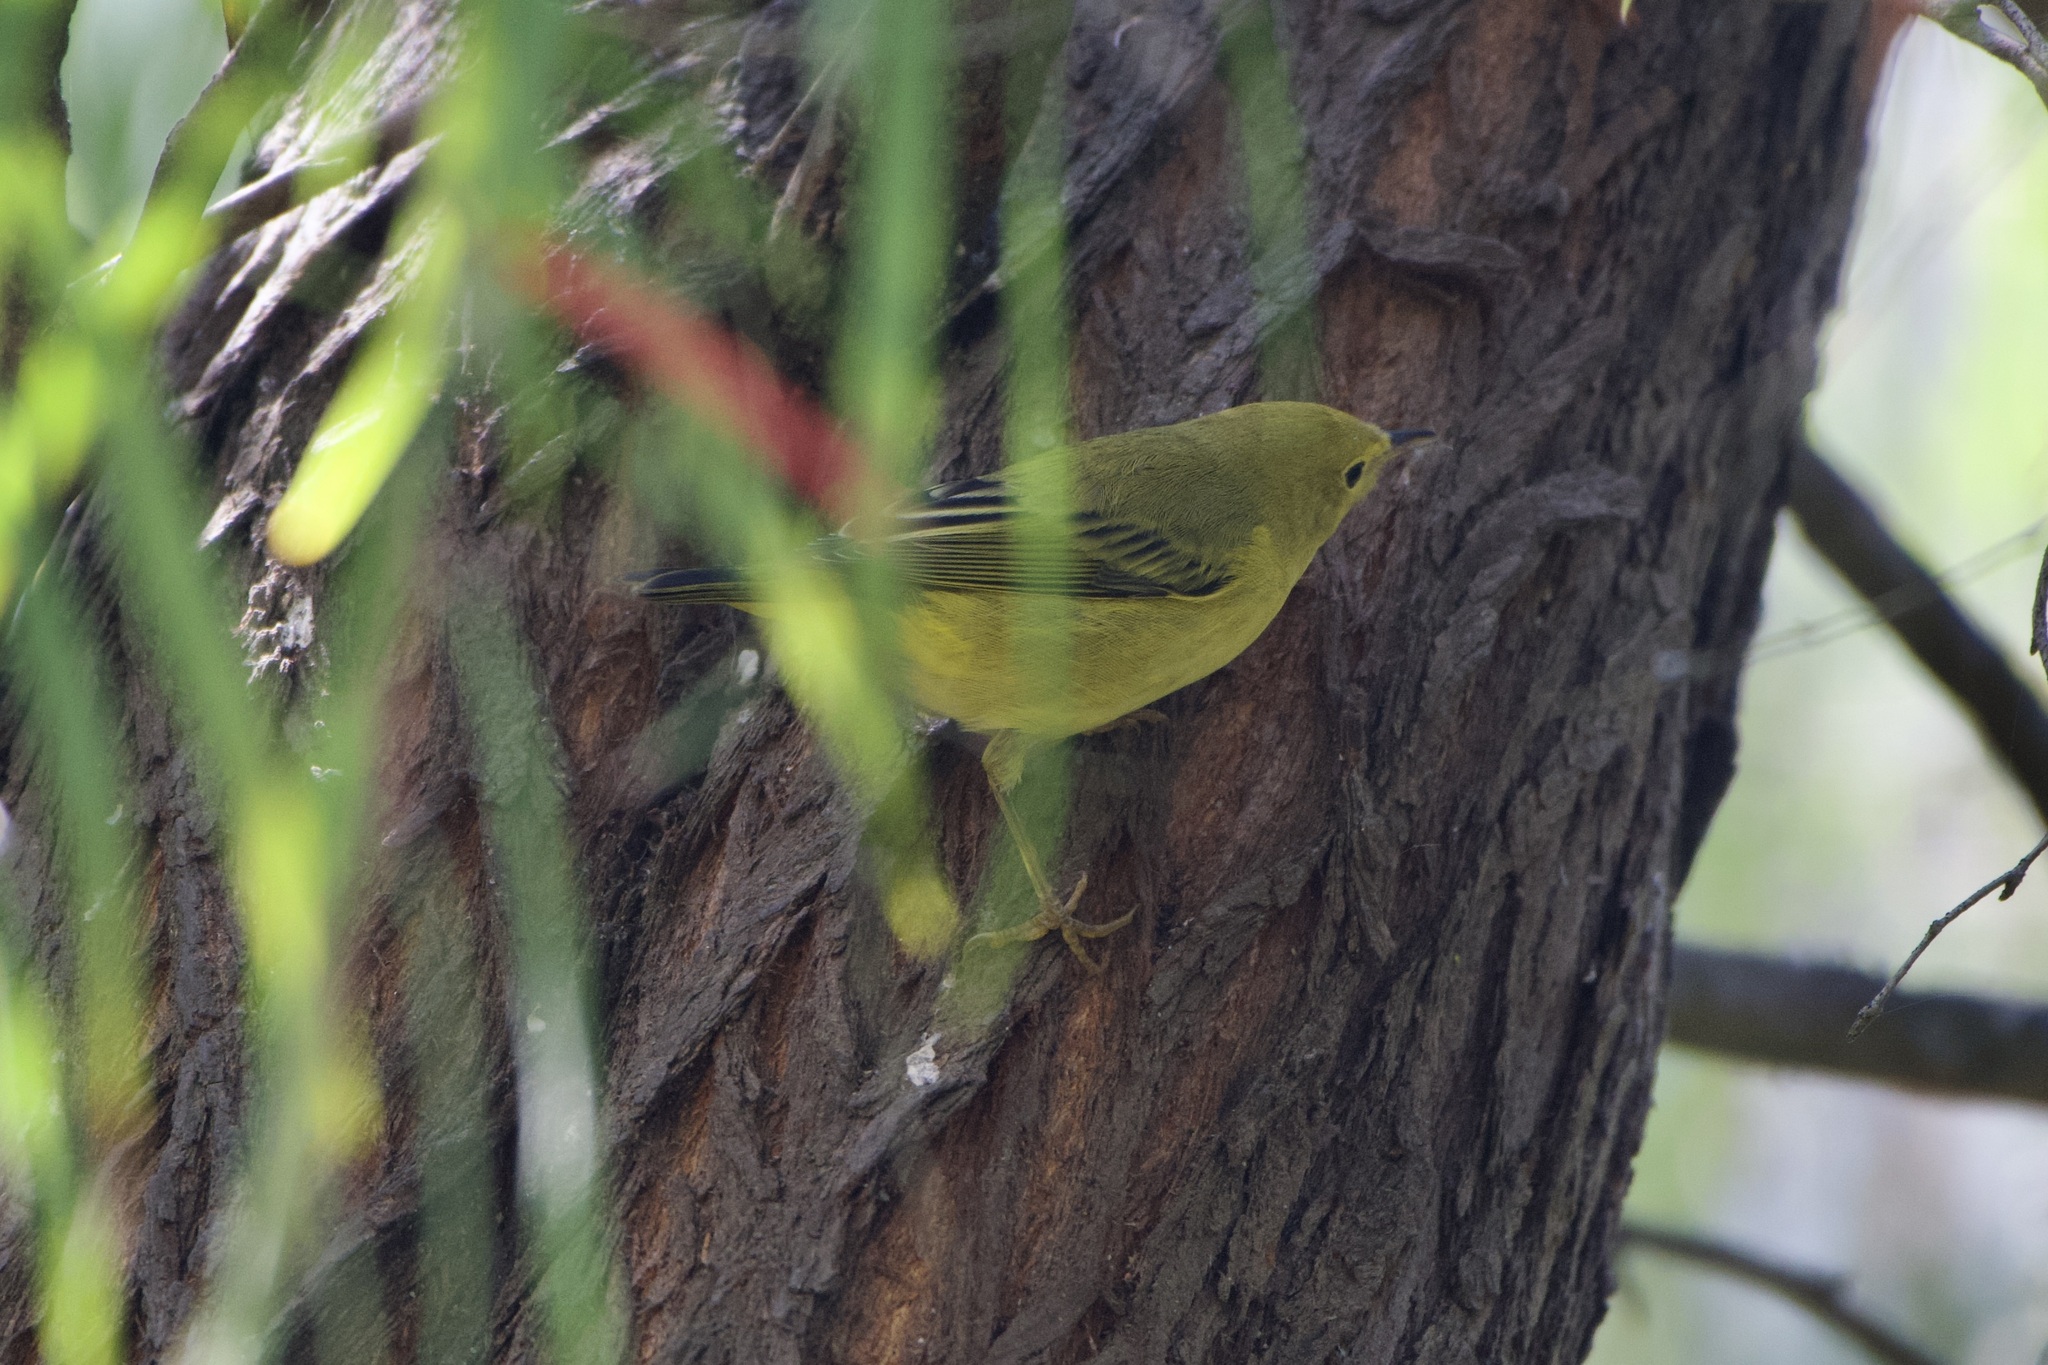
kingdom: Animalia
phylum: Chordata
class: Aves
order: Passeriformes
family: Parulidae
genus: Setophaga
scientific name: Setophaga petechia
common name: Yellow warbler
